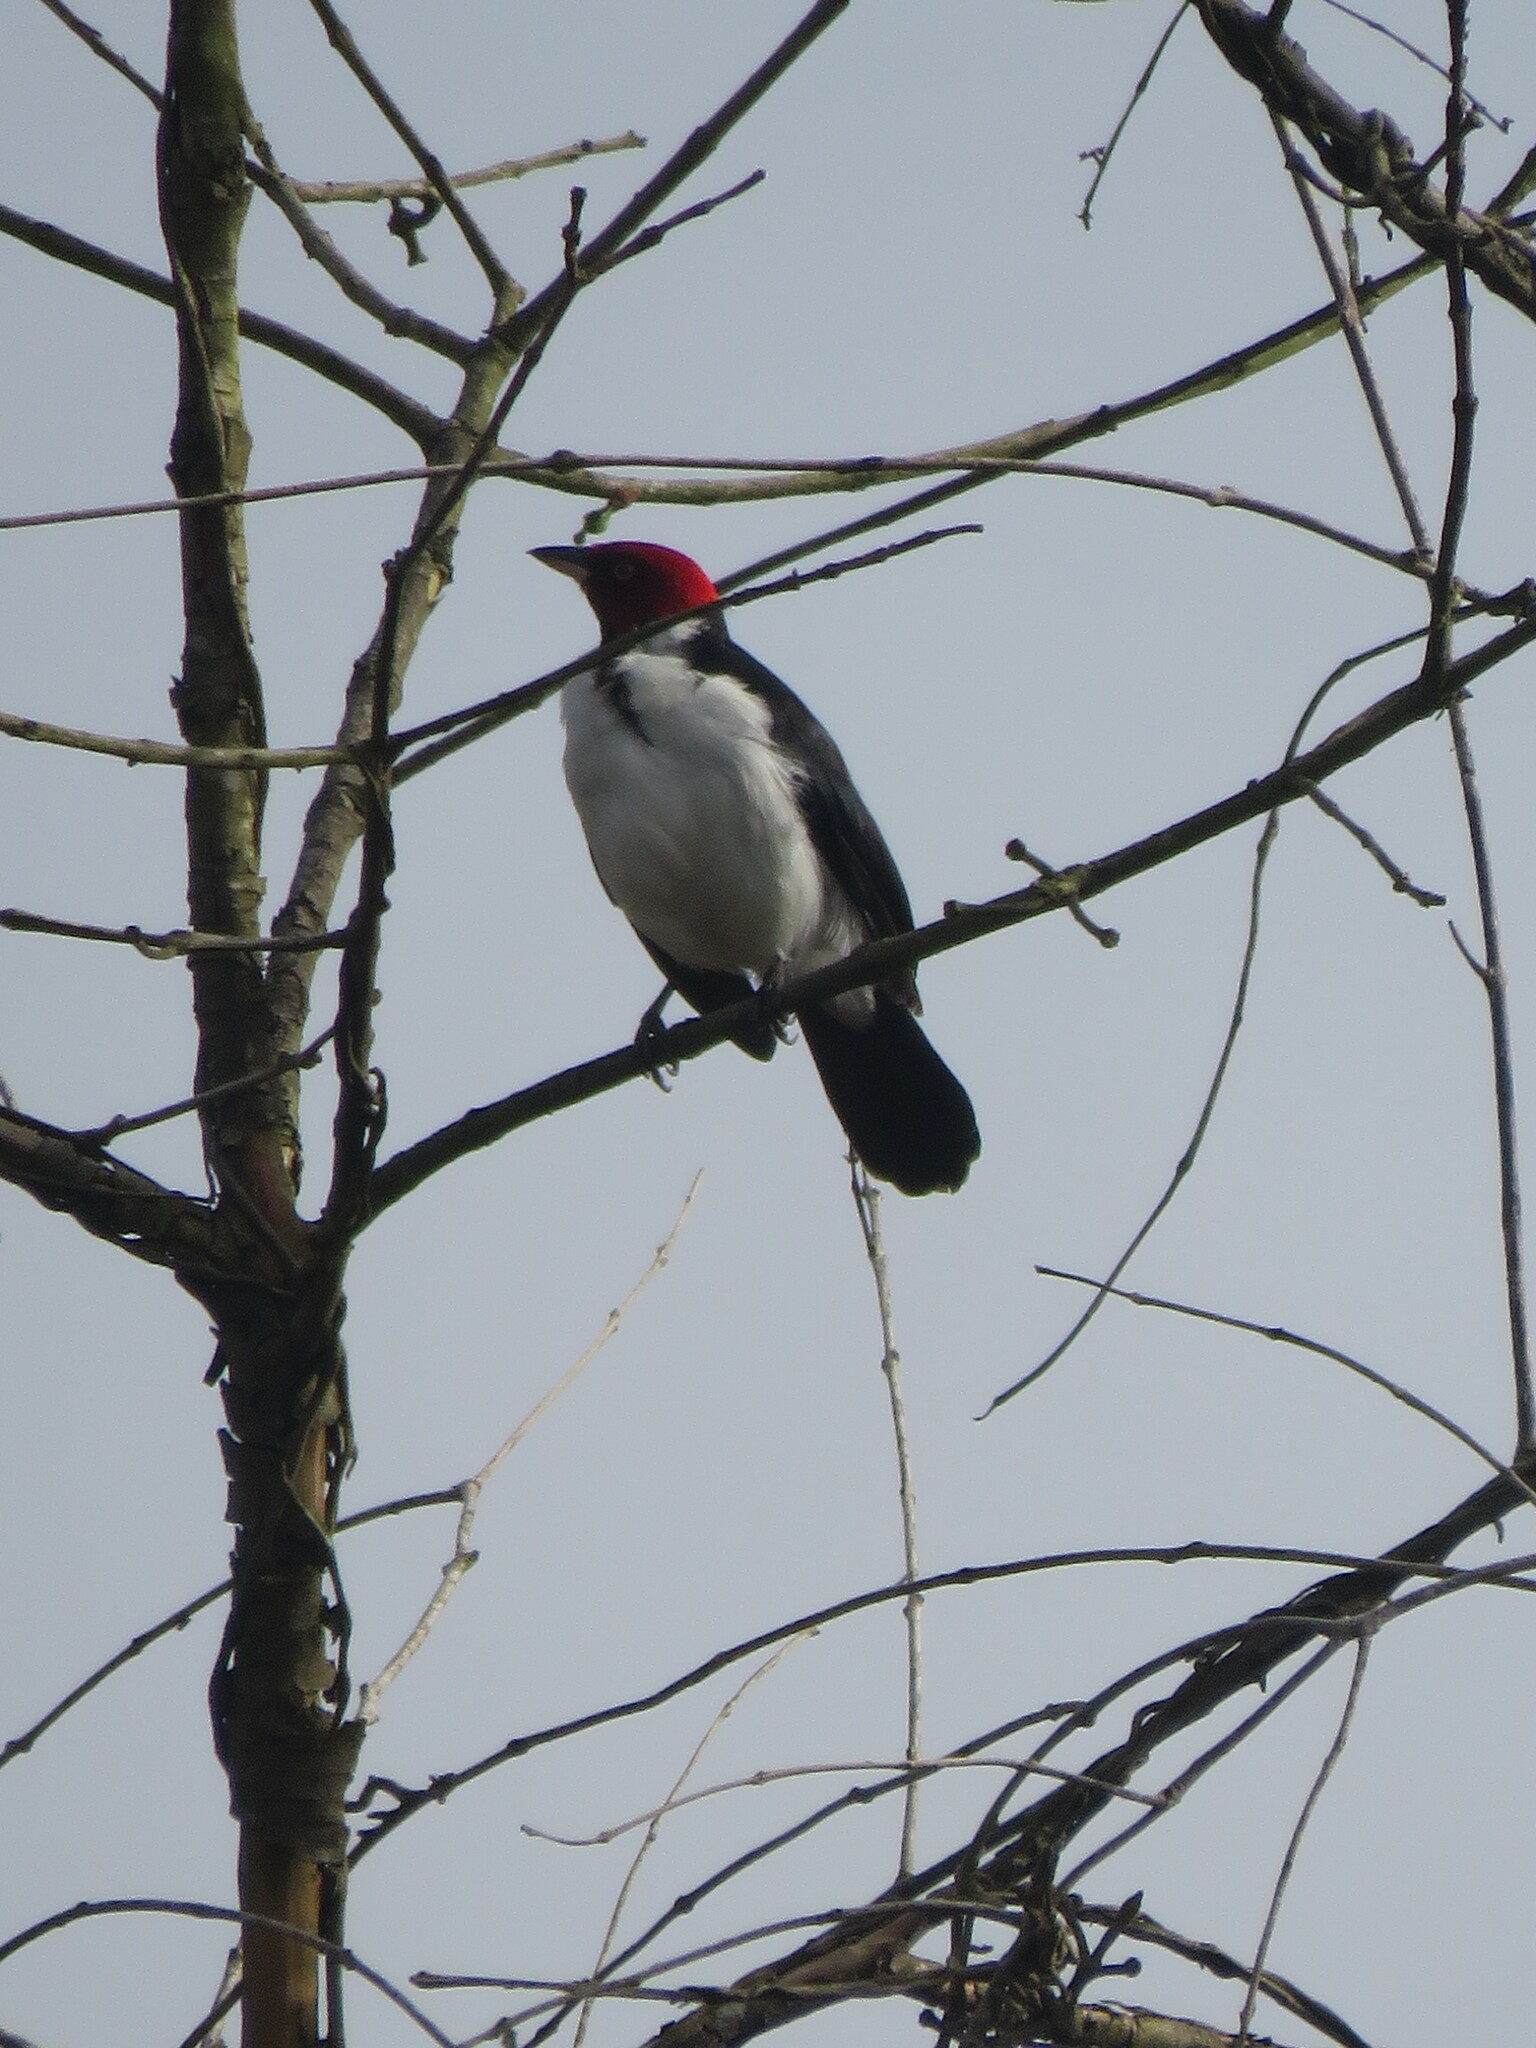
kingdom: Animalia
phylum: Chordata
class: Aves
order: Passeriformes
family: Thraupidae
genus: Paroaria
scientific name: Paroaria gularis
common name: Red-capped cardinal
